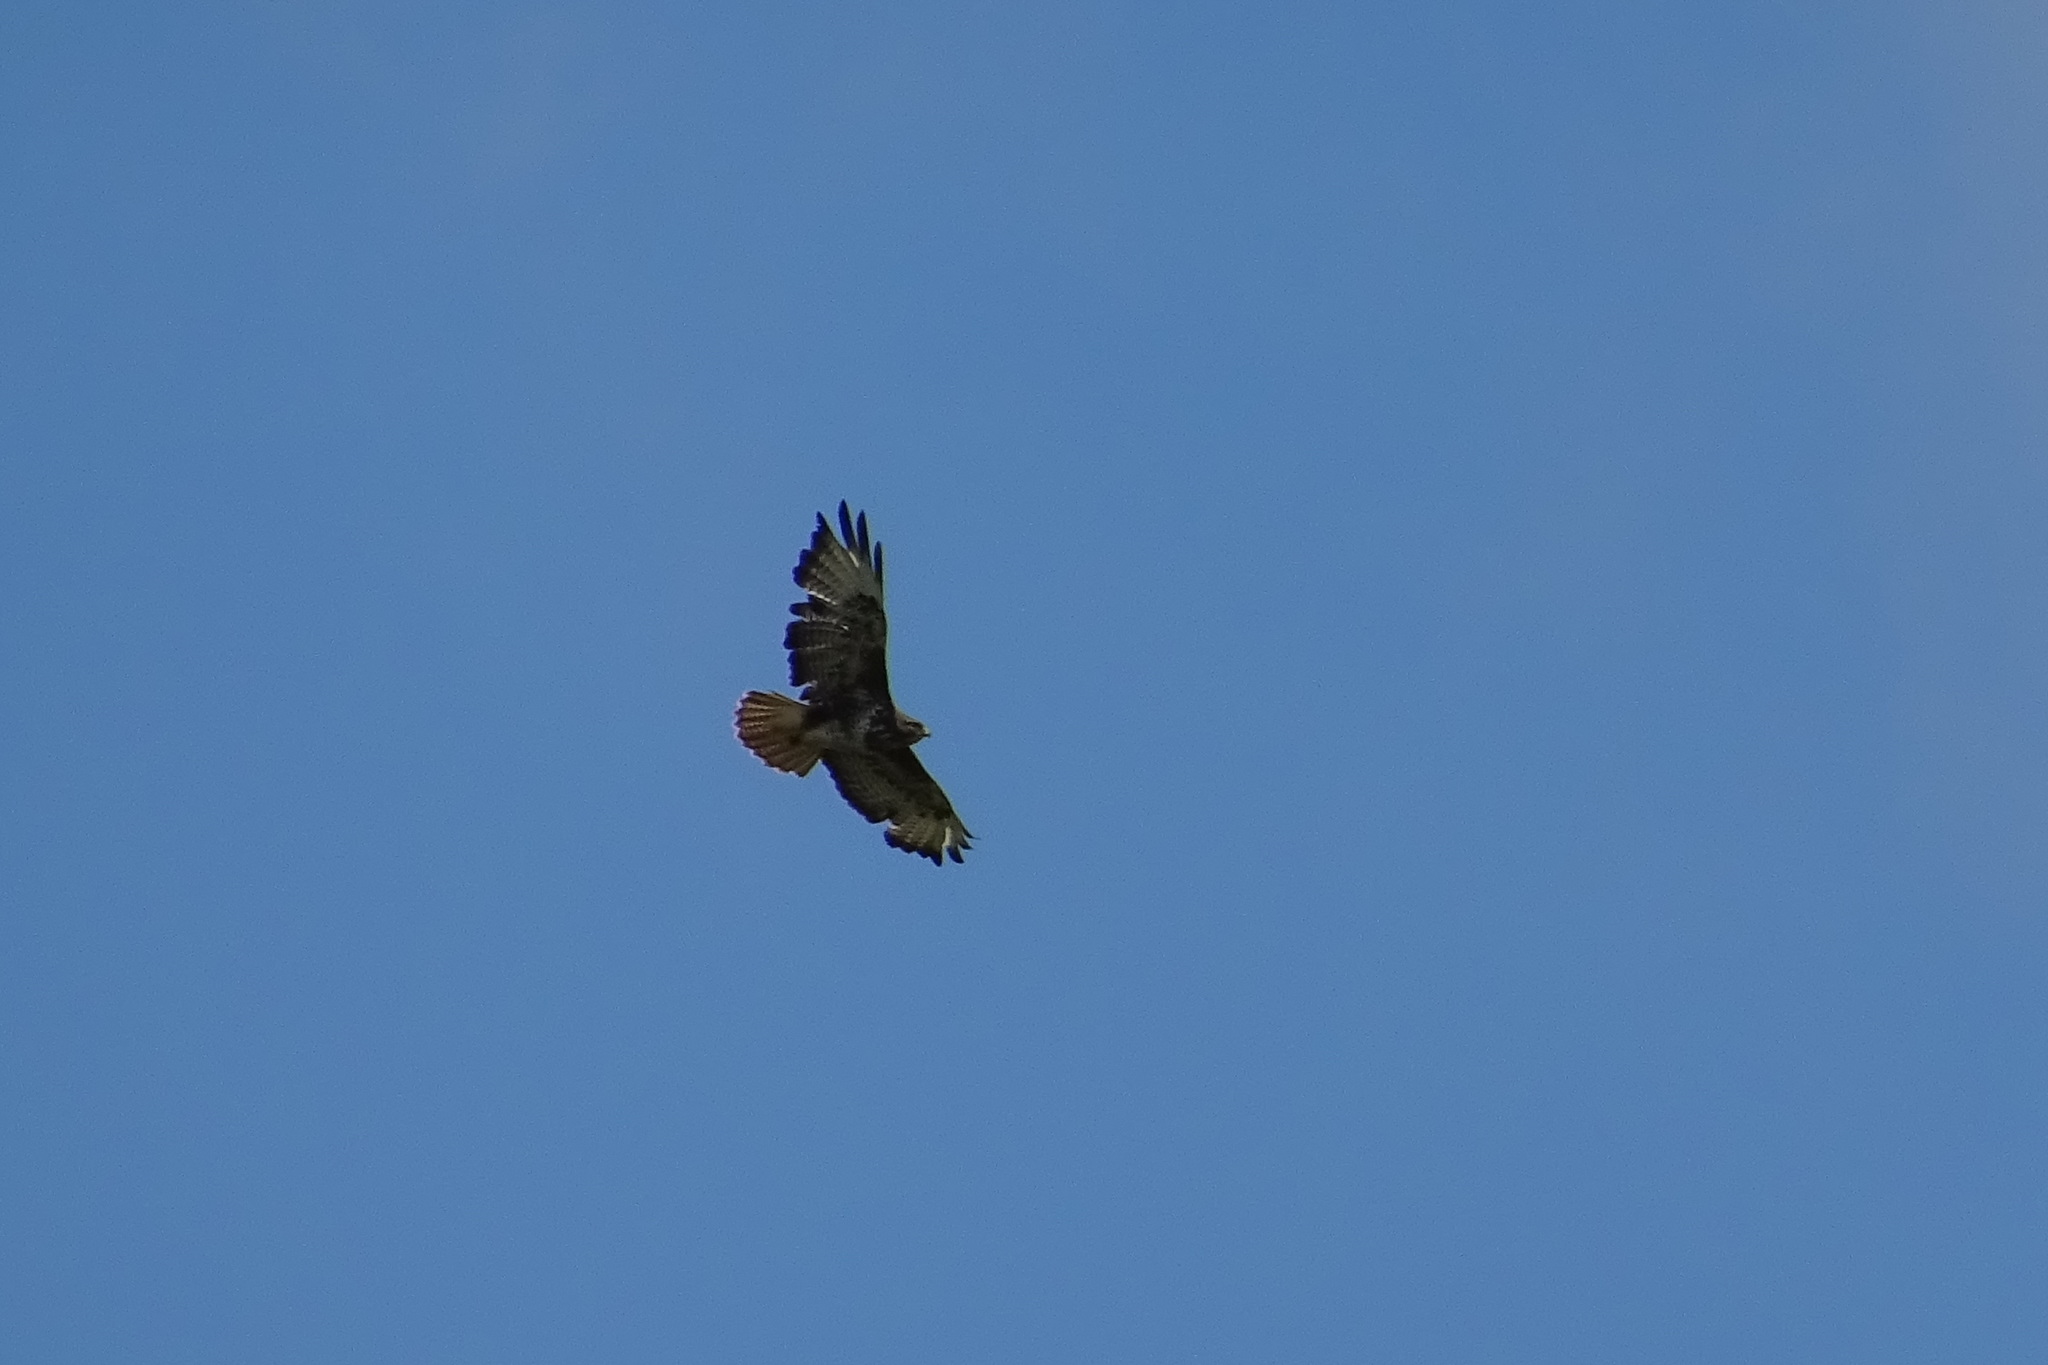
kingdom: Animalia
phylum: Chordata
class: Aves
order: Accipitriformes
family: Accipitridae
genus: Buteo
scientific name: Buteo buteo
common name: Common buzzard
